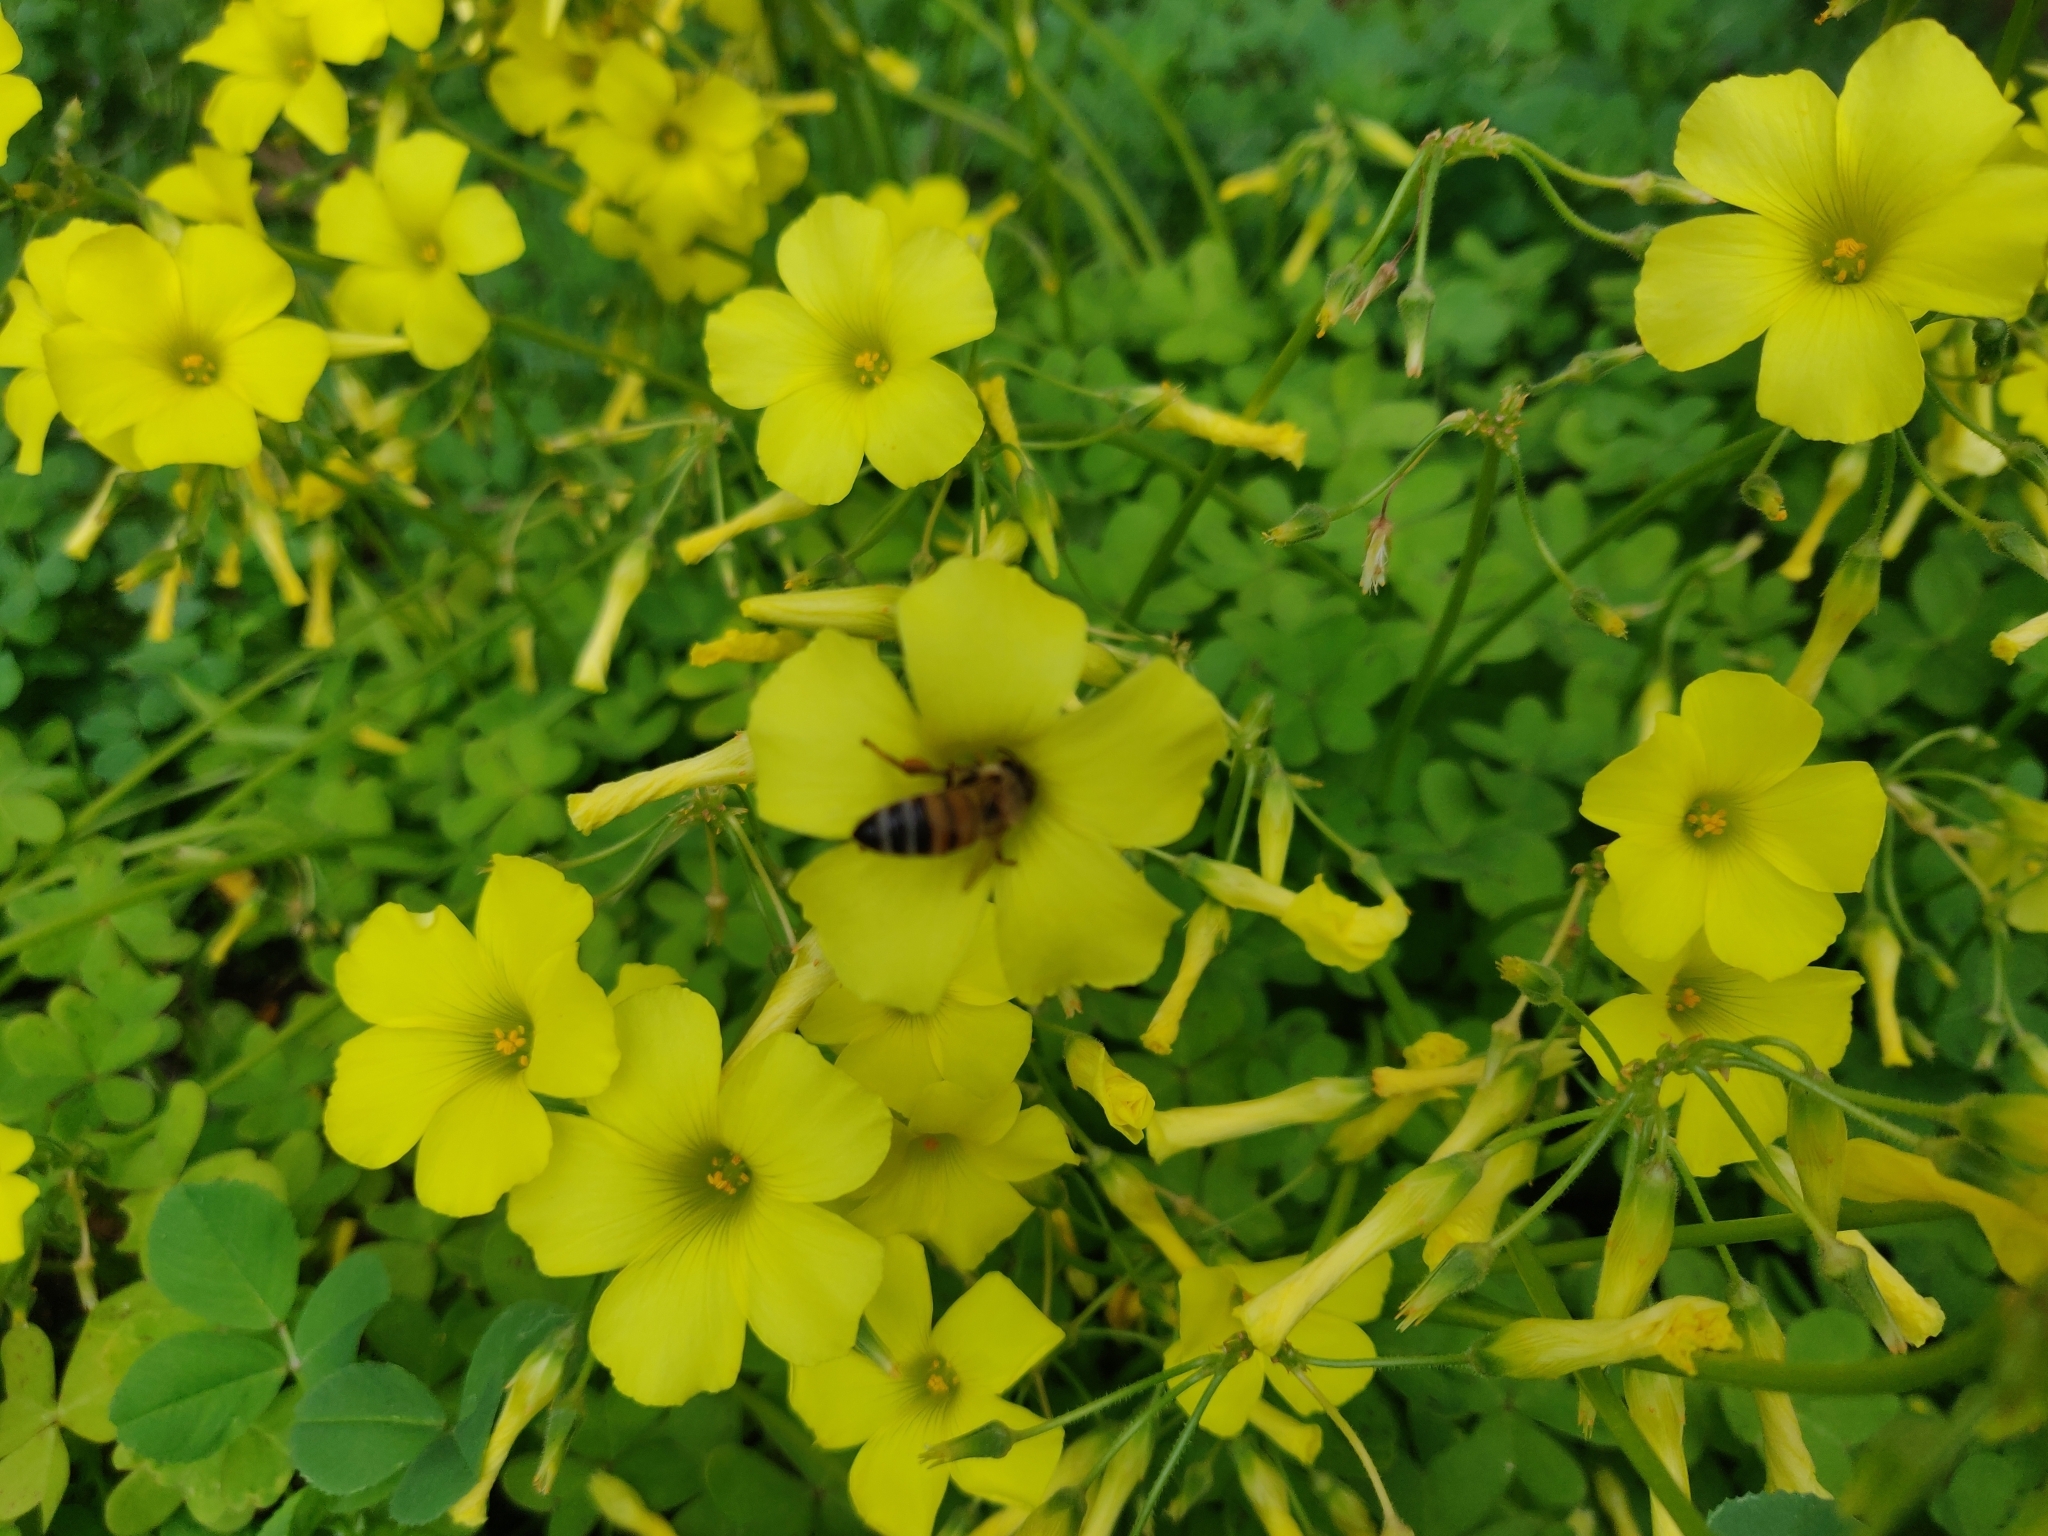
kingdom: Animalia
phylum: Arthropoda
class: Insecta
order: Hymenoptera
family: Apidae
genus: Apis
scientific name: Apis mellifera
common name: Honey bee
